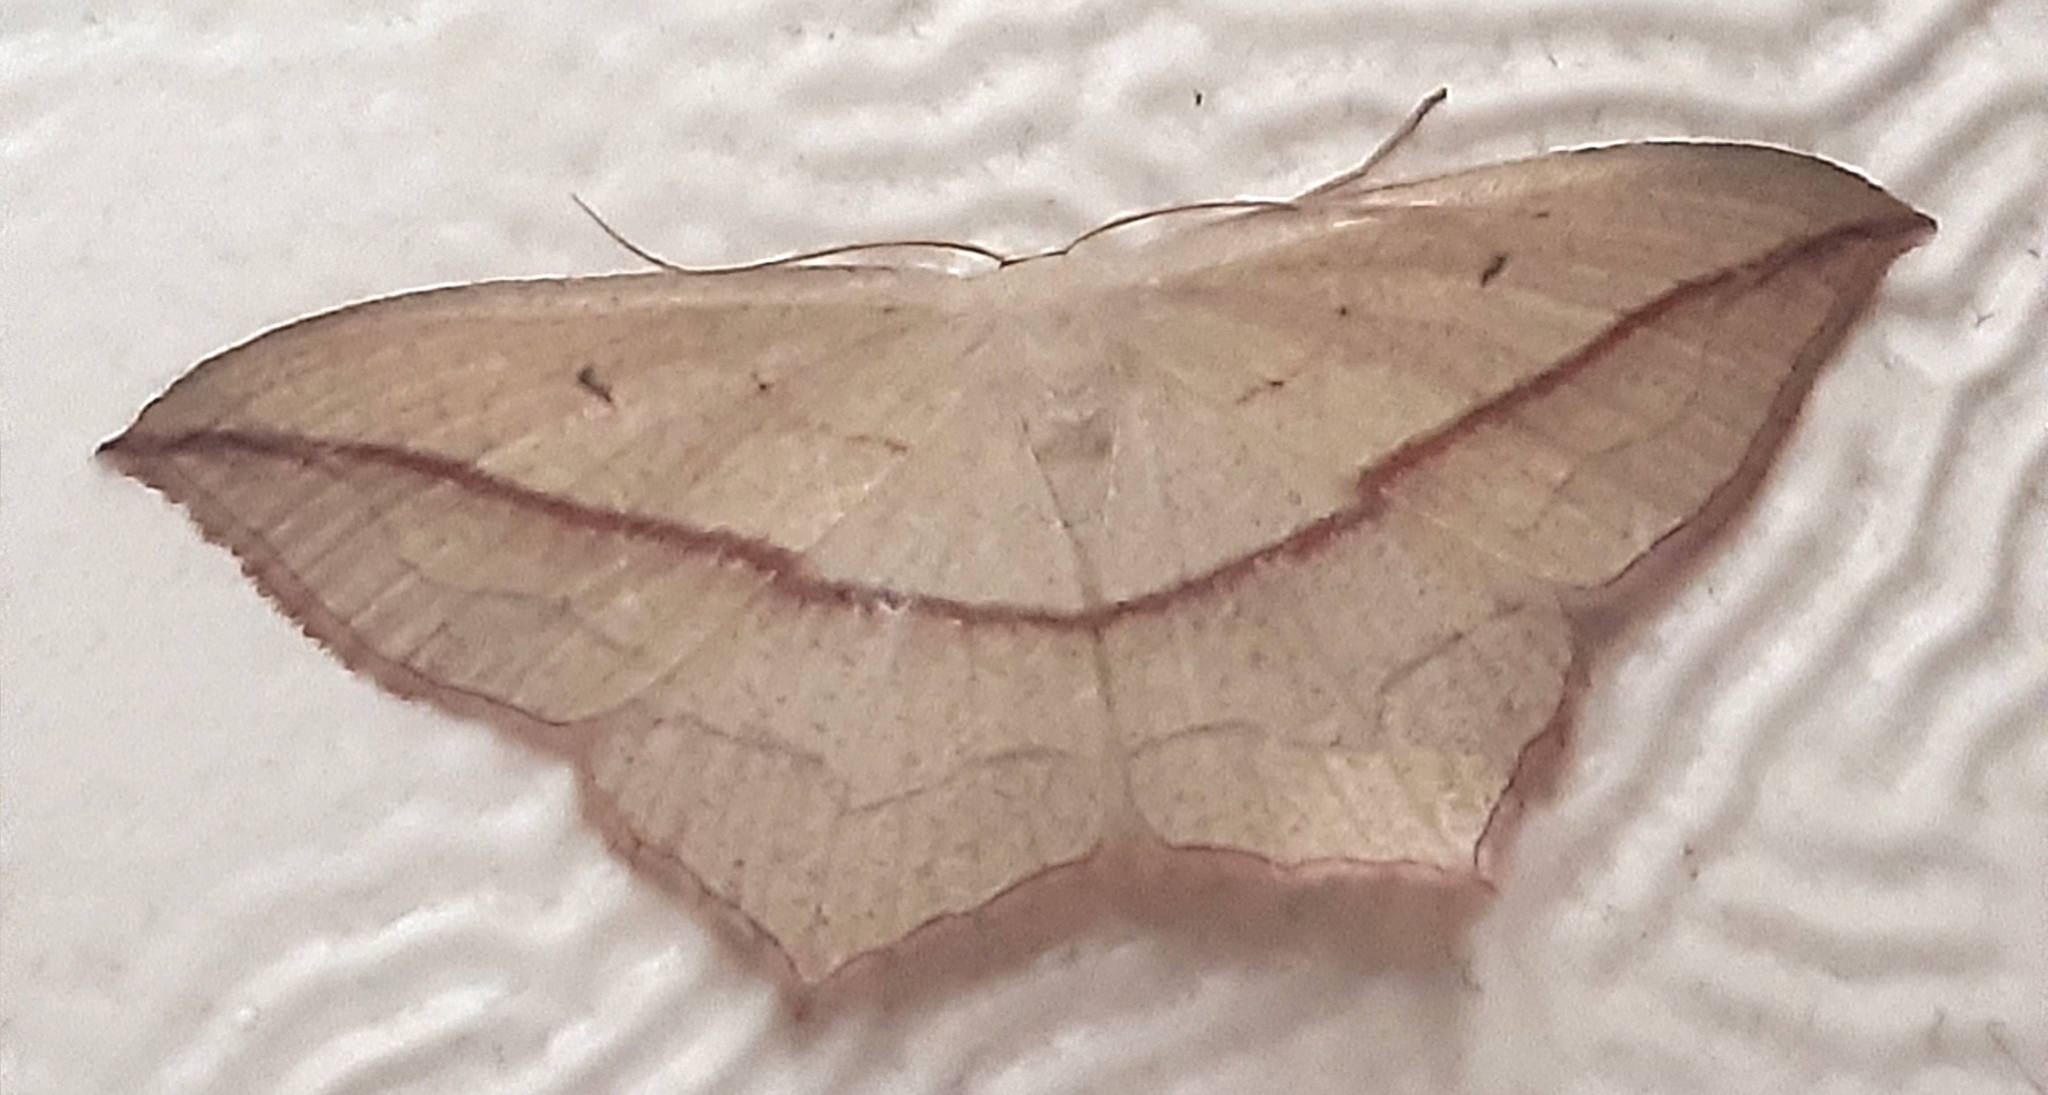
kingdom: Animalia
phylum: Arthropoda
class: Insecta
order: Lepidoptera
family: Geometridae
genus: Timandra
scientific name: Timandra comae
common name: Blood-vein
